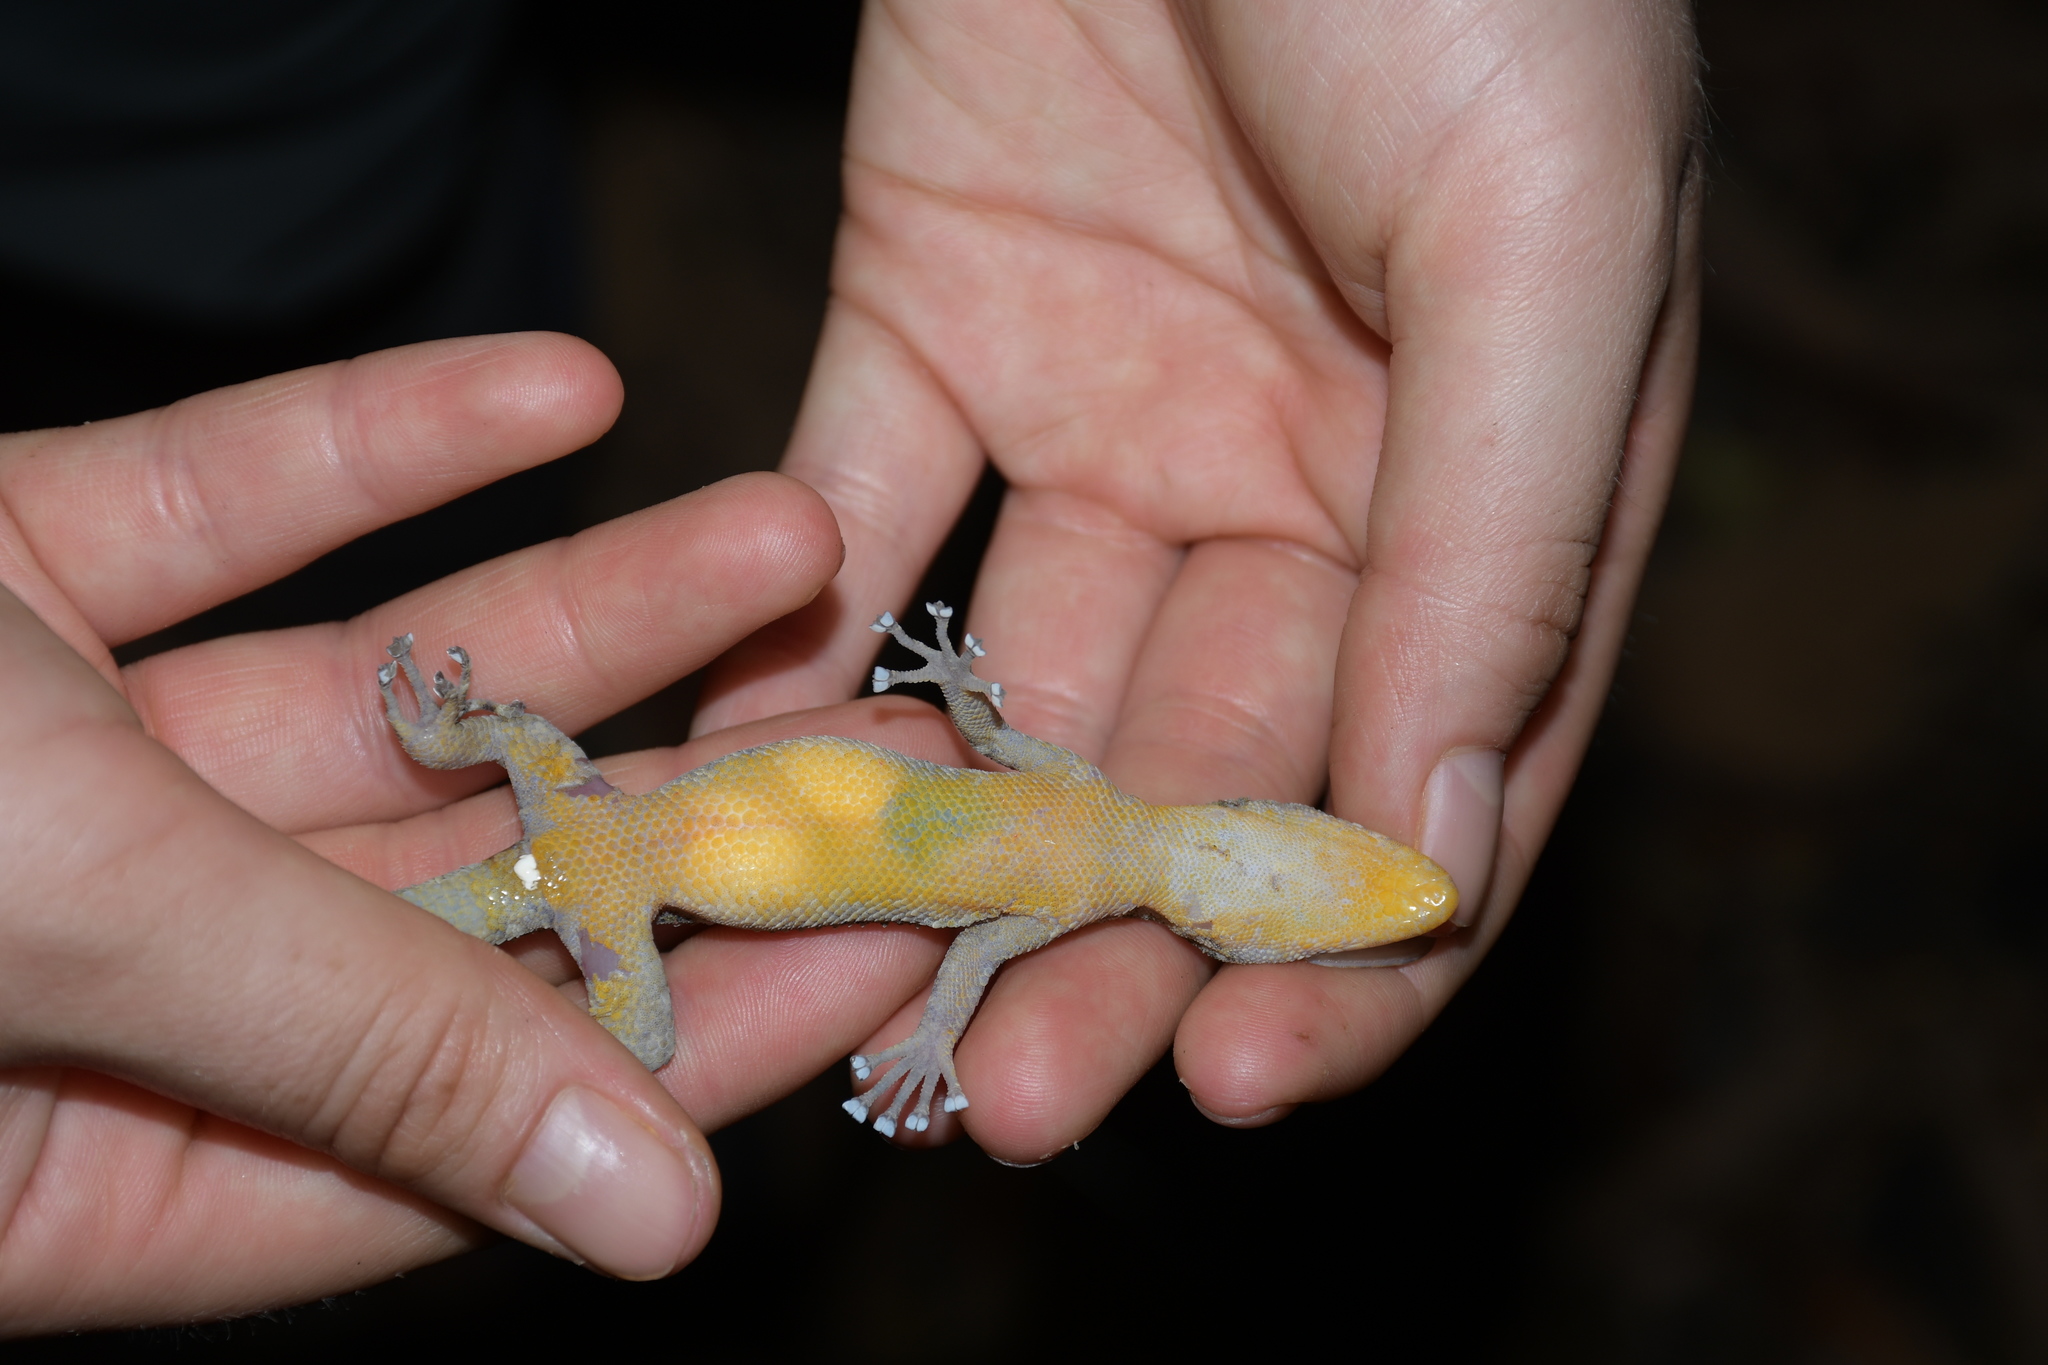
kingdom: Animalia
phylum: Chordata
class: Squamata
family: Phyllodactylidae
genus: Phyllodactylus
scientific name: Phyllodactylus tuberculosus
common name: Yellowbelly  gecko
